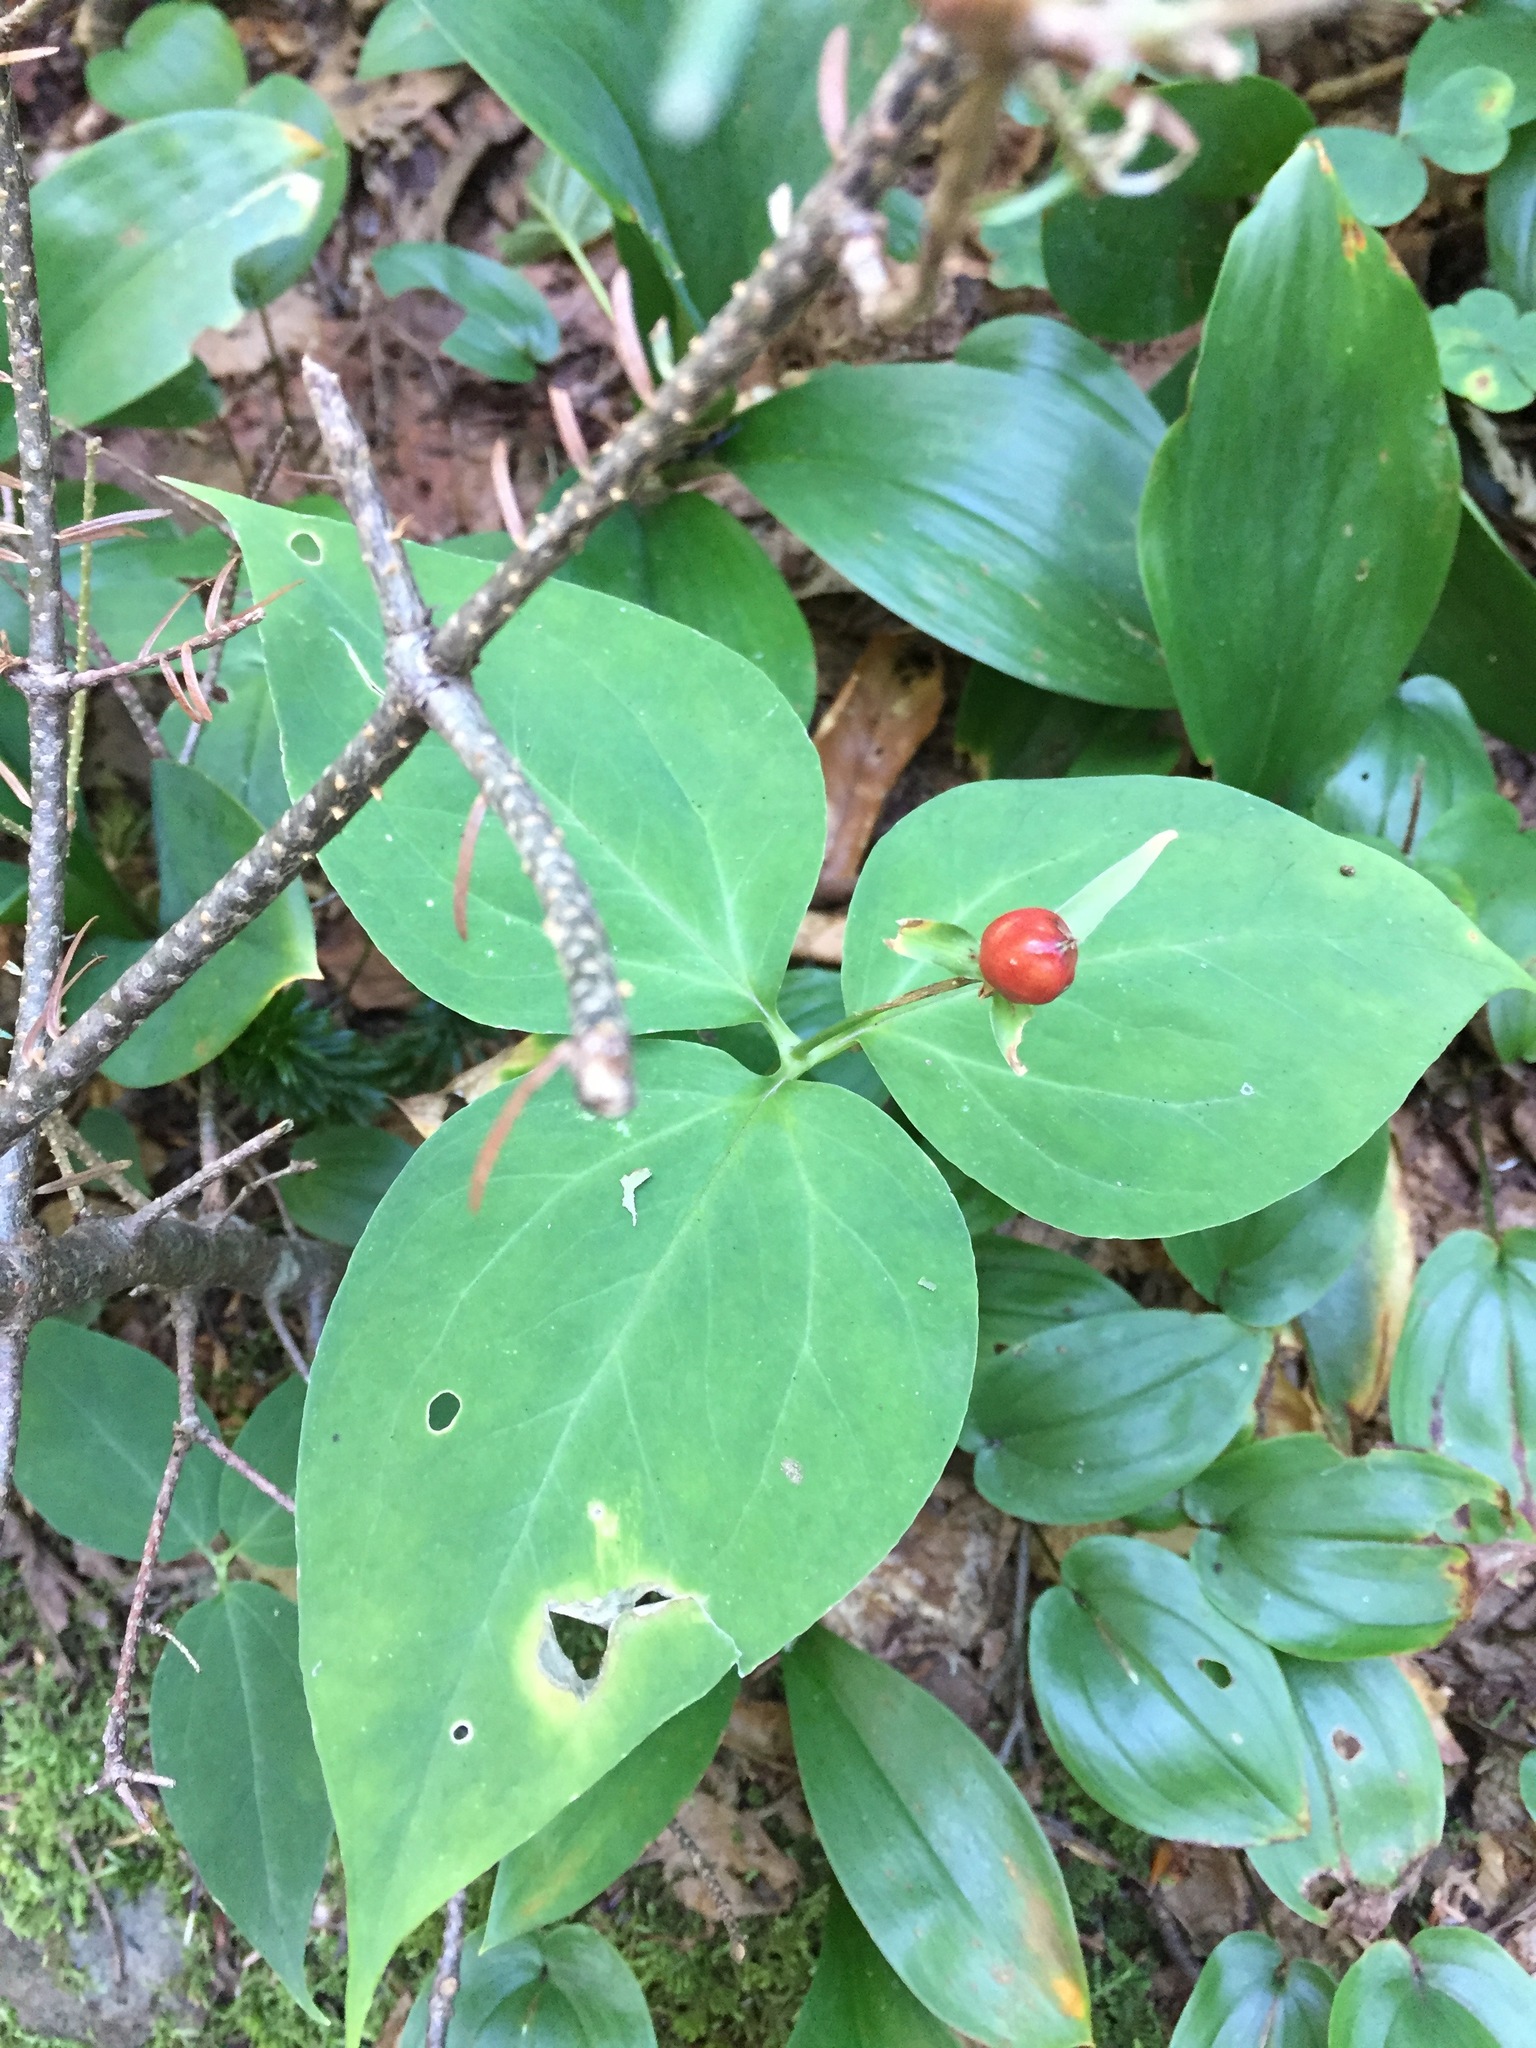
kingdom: Plantae
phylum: Tracheophyta
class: Liliopsida
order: Liliales
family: Melanthiaceae
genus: Trillium
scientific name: Trillium undulatum
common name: Paint trillium
